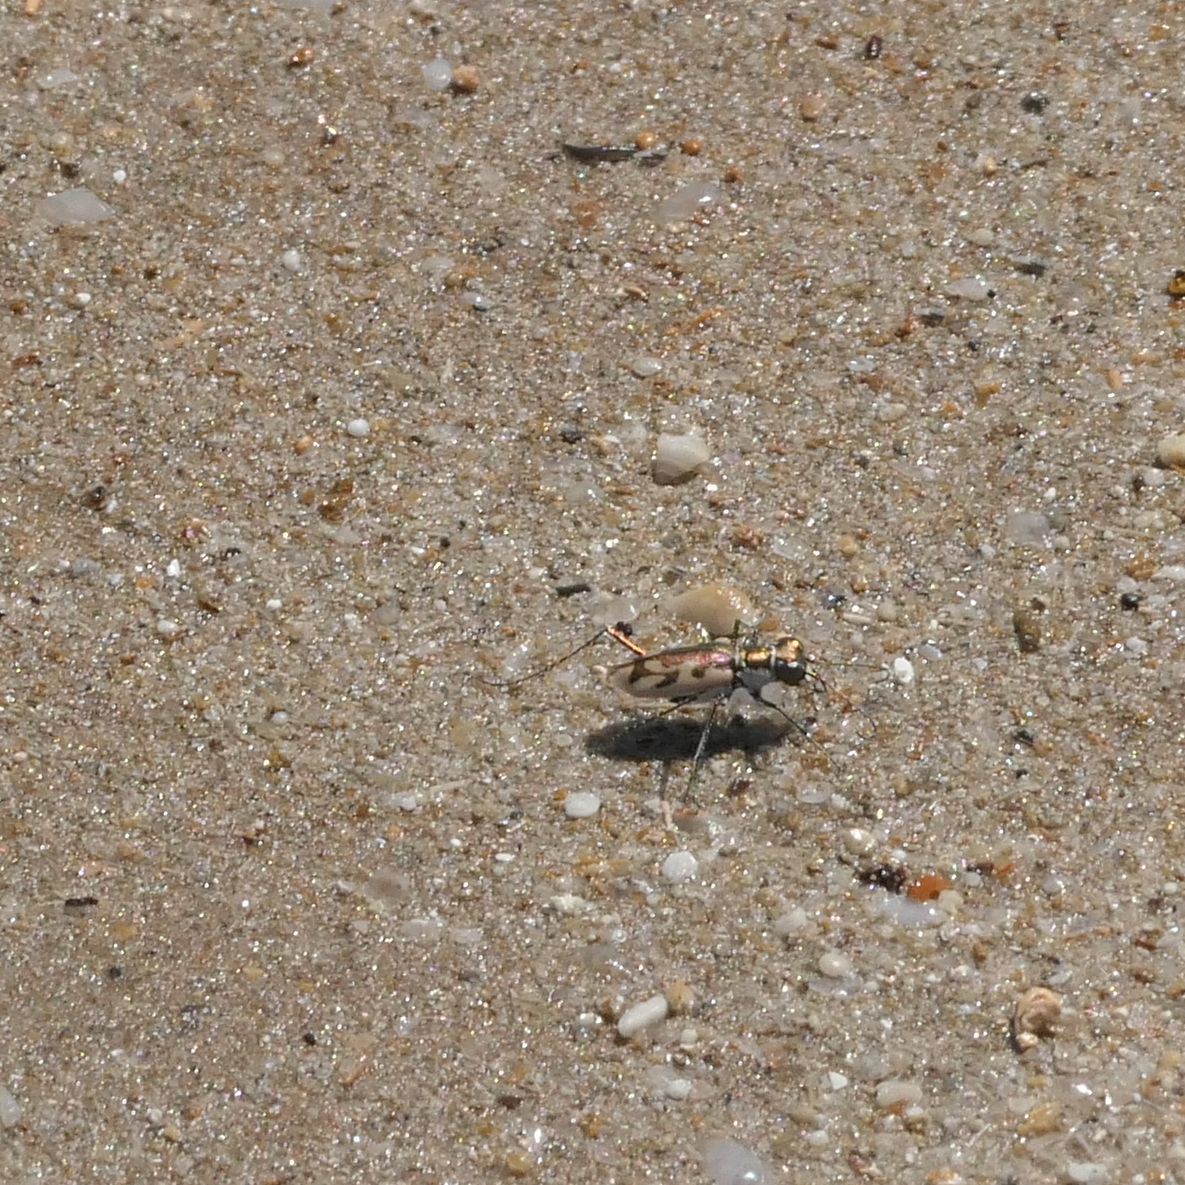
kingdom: Animalia
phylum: Arthropoda
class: Insecta
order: Coleoptera
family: Carabidae
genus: Hypaetha
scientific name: Hypaetha montravelii
